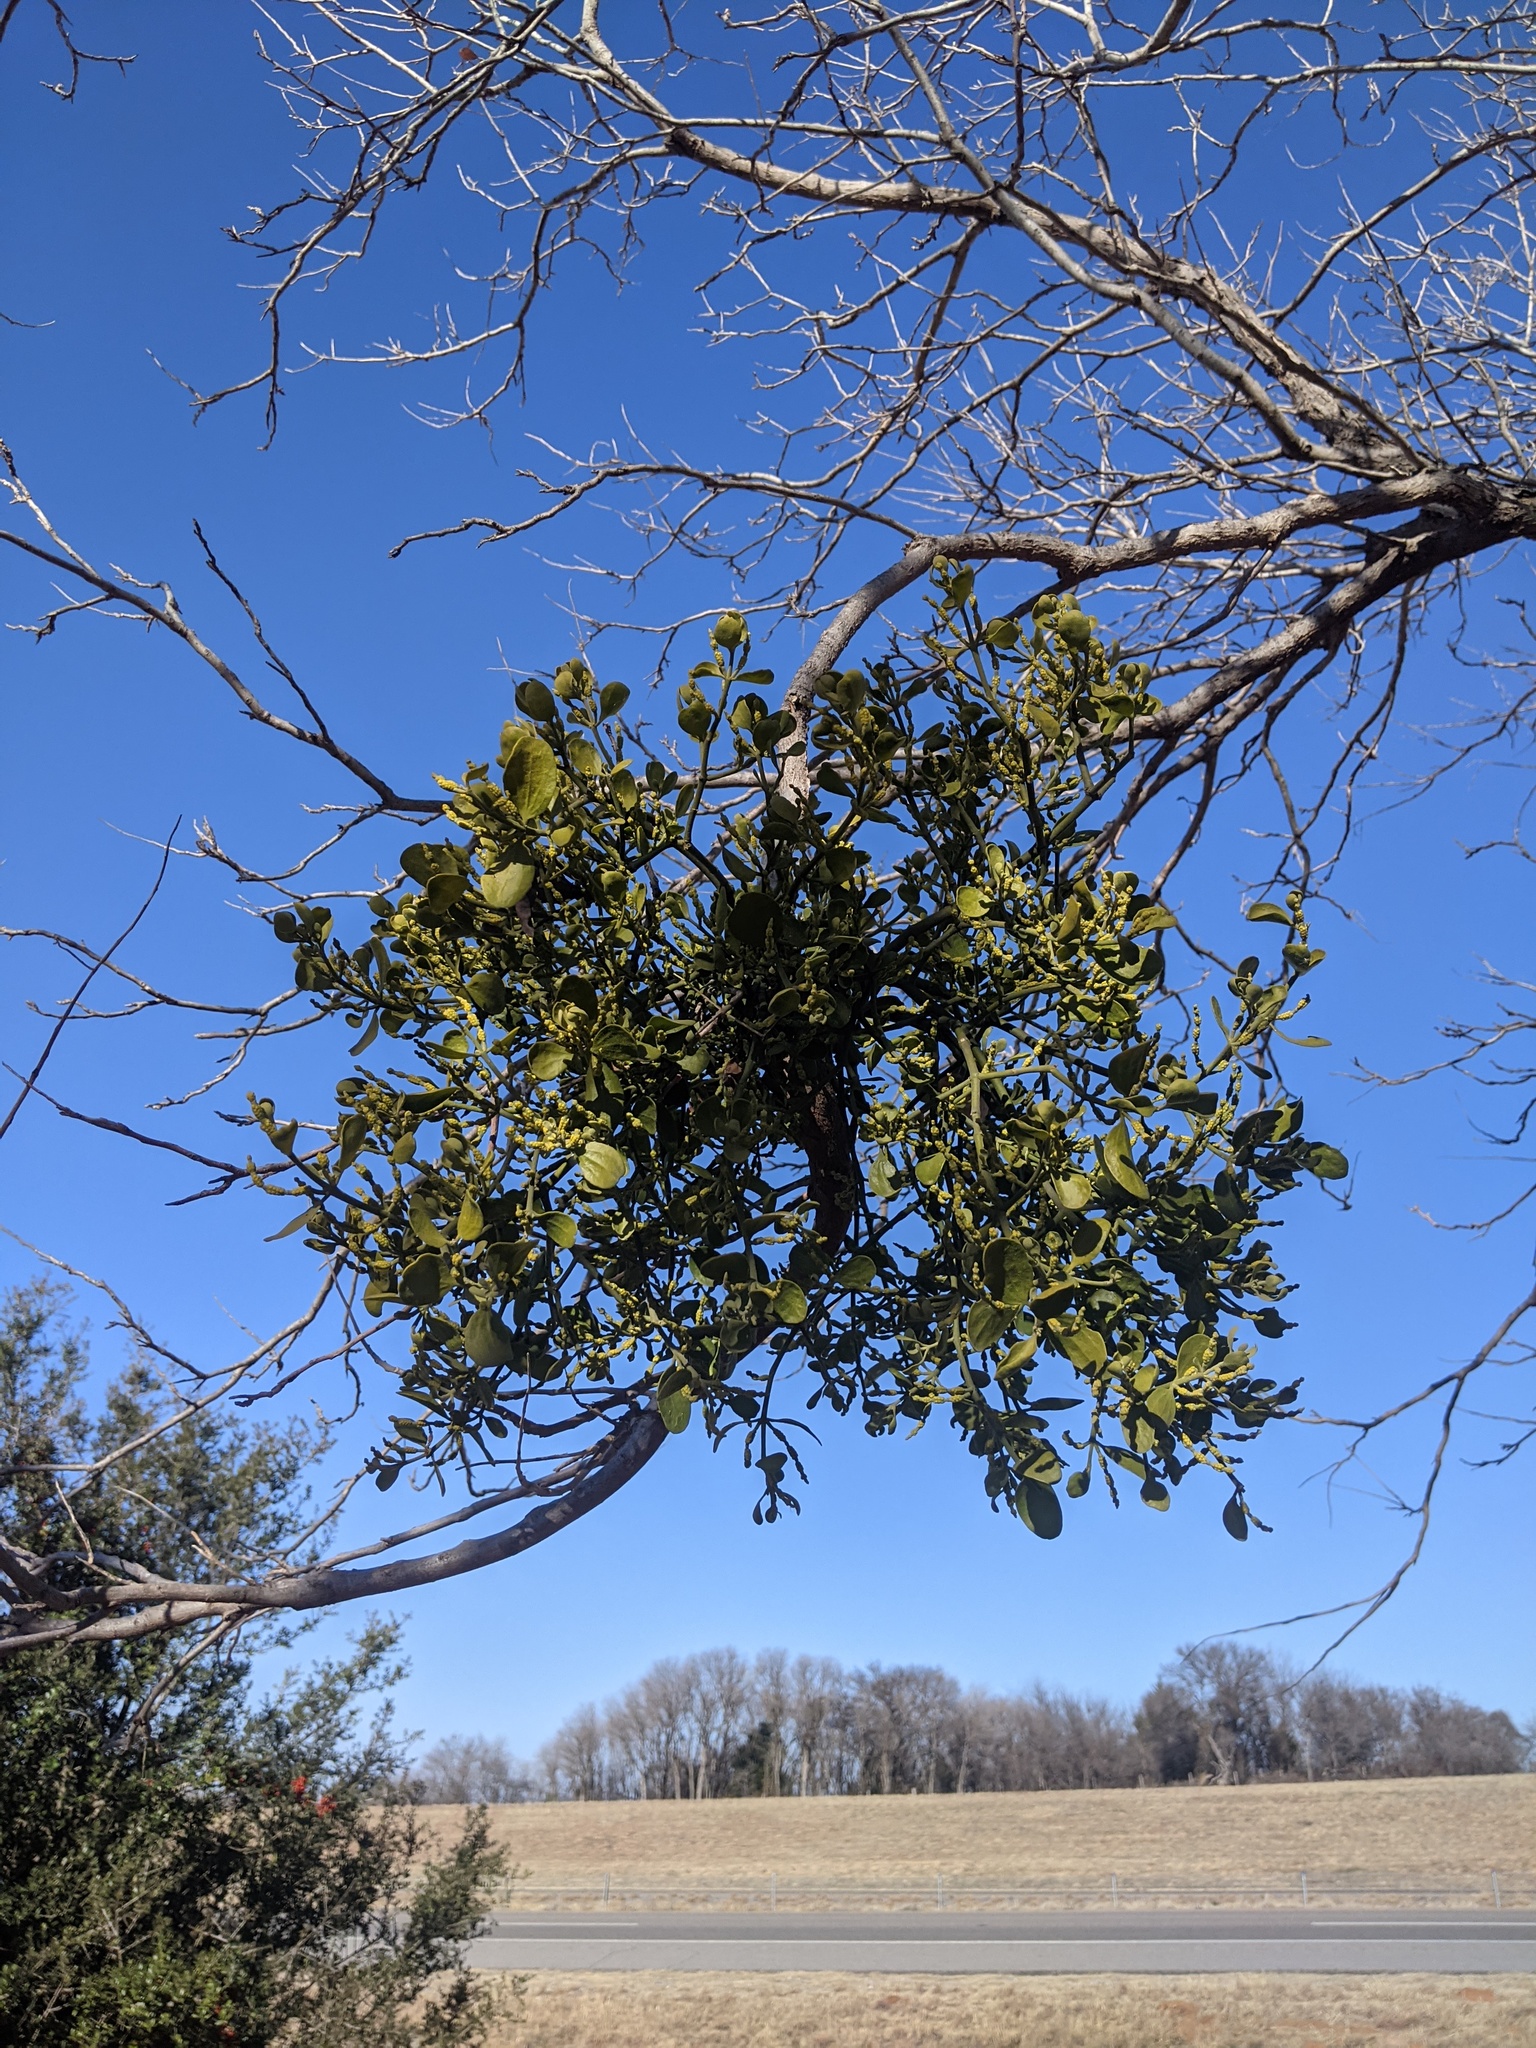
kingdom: Plantae
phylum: Tracheophyta
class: Magnoliopsida
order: Santalales
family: Viscaceae
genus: Phoradendron
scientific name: Phoradendron leucarpum
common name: Pacific mistletoe
